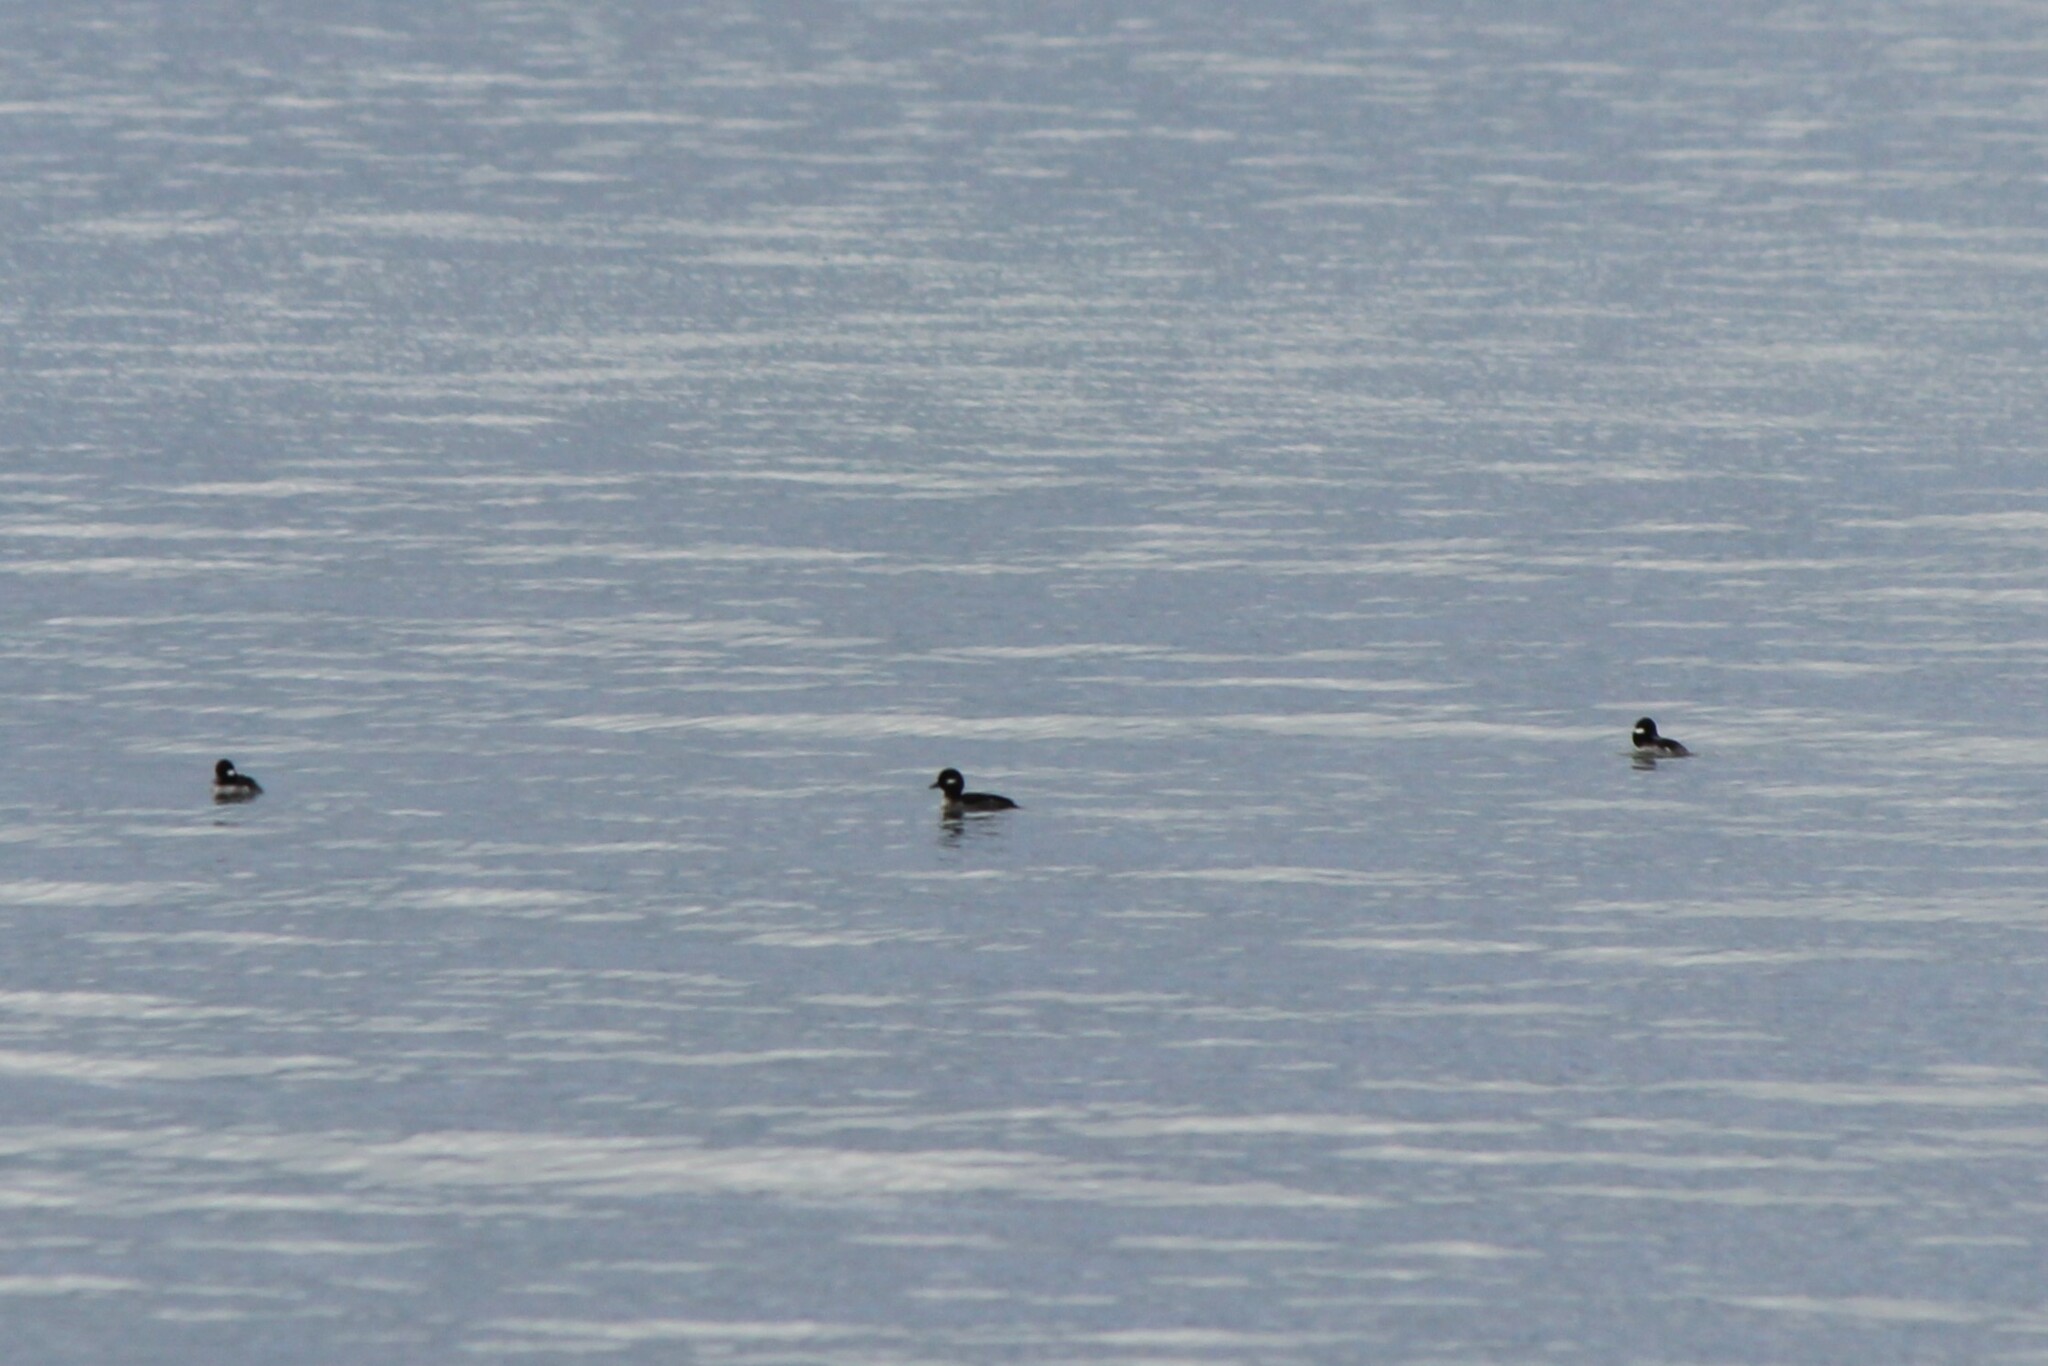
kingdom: Animalia
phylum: Chordata
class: Aves
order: Anseriformes
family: Anatidae
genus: Bucephala
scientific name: Bucephala albeola
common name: Bufflehead
